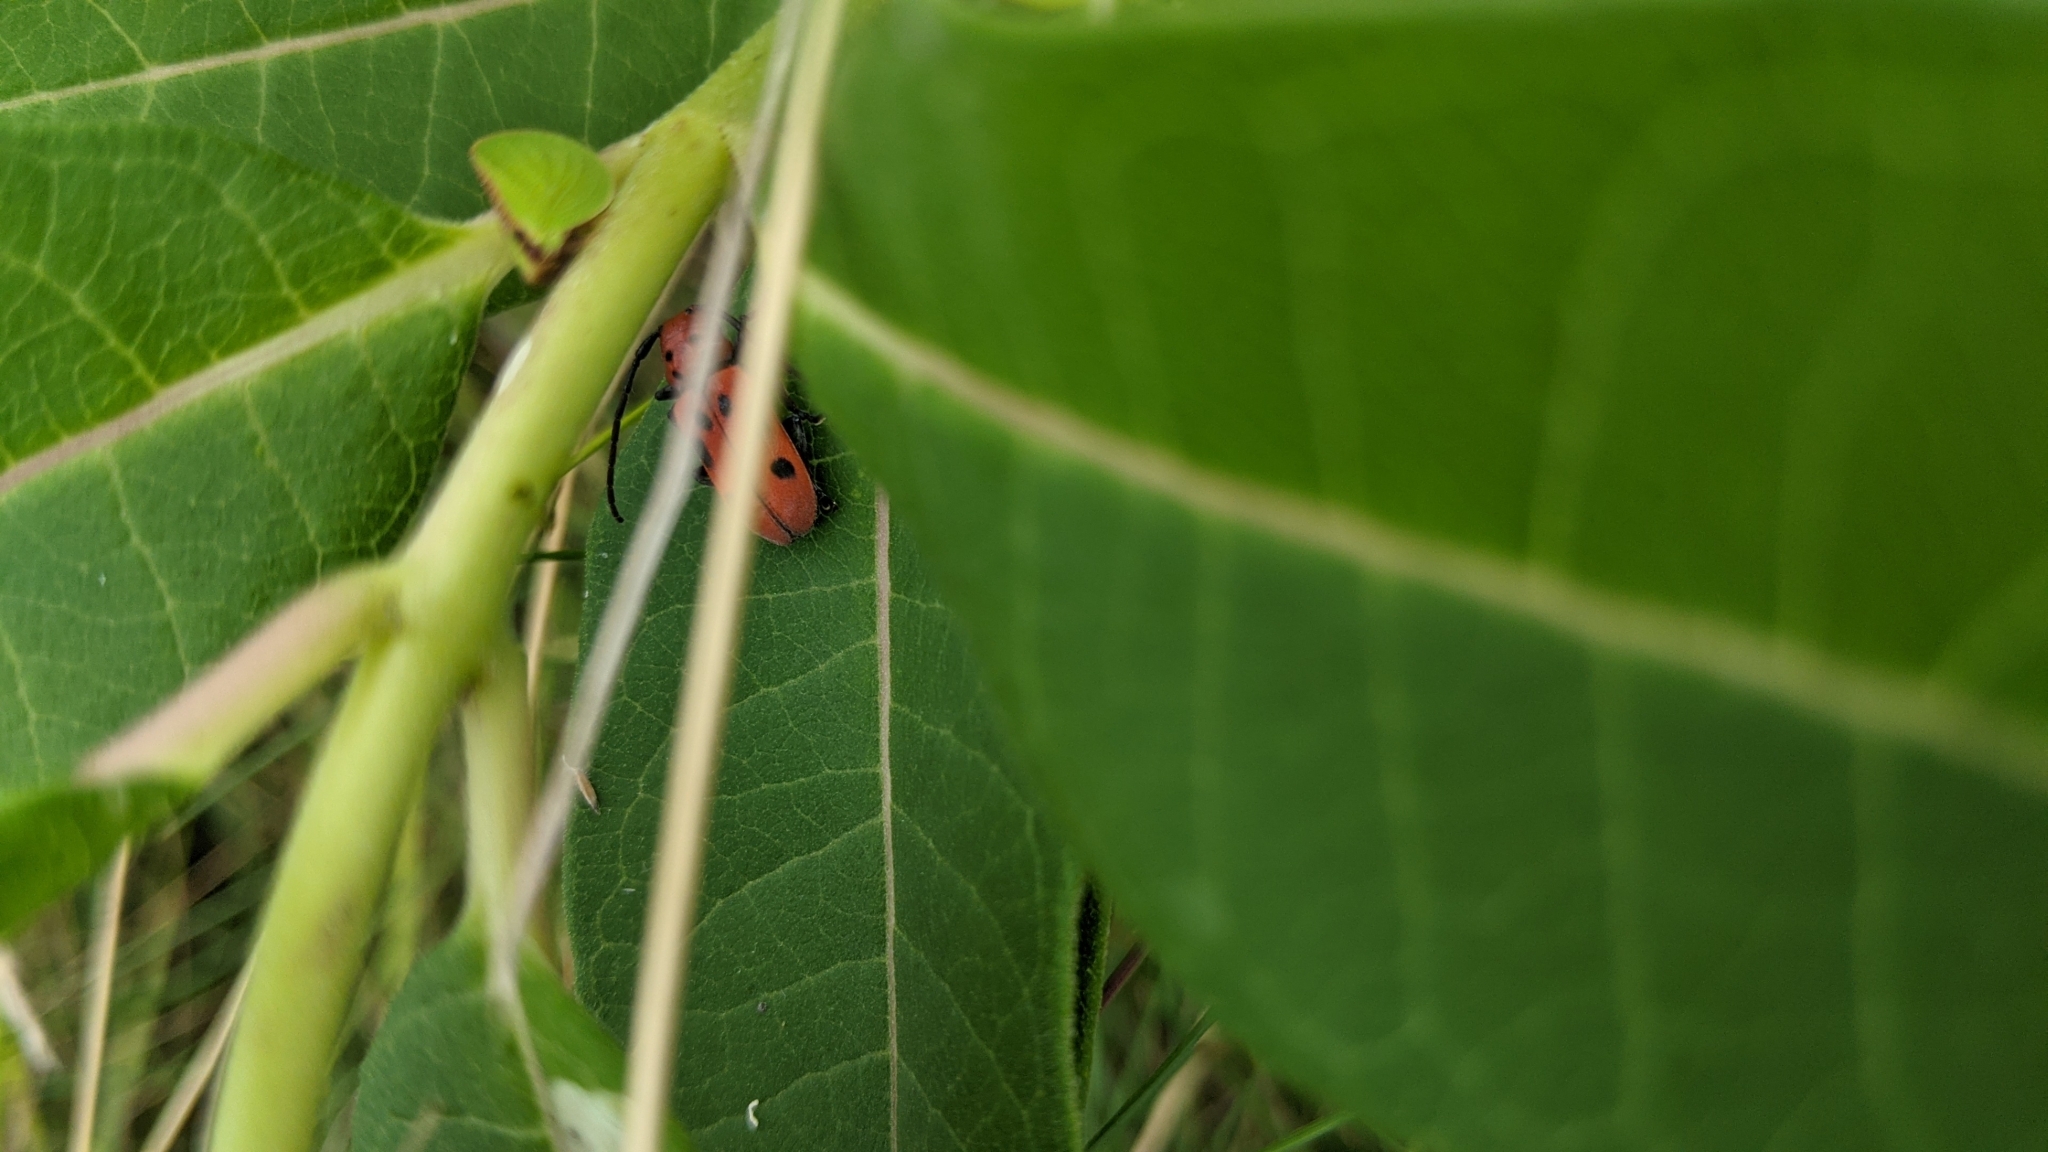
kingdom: Animalia
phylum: Arthropoda
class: Insecta
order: Coleoptera
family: Cerambycidae
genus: Tetraopes
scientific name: Tetraopes tetrophthalmus
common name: Red milkweed beetle
